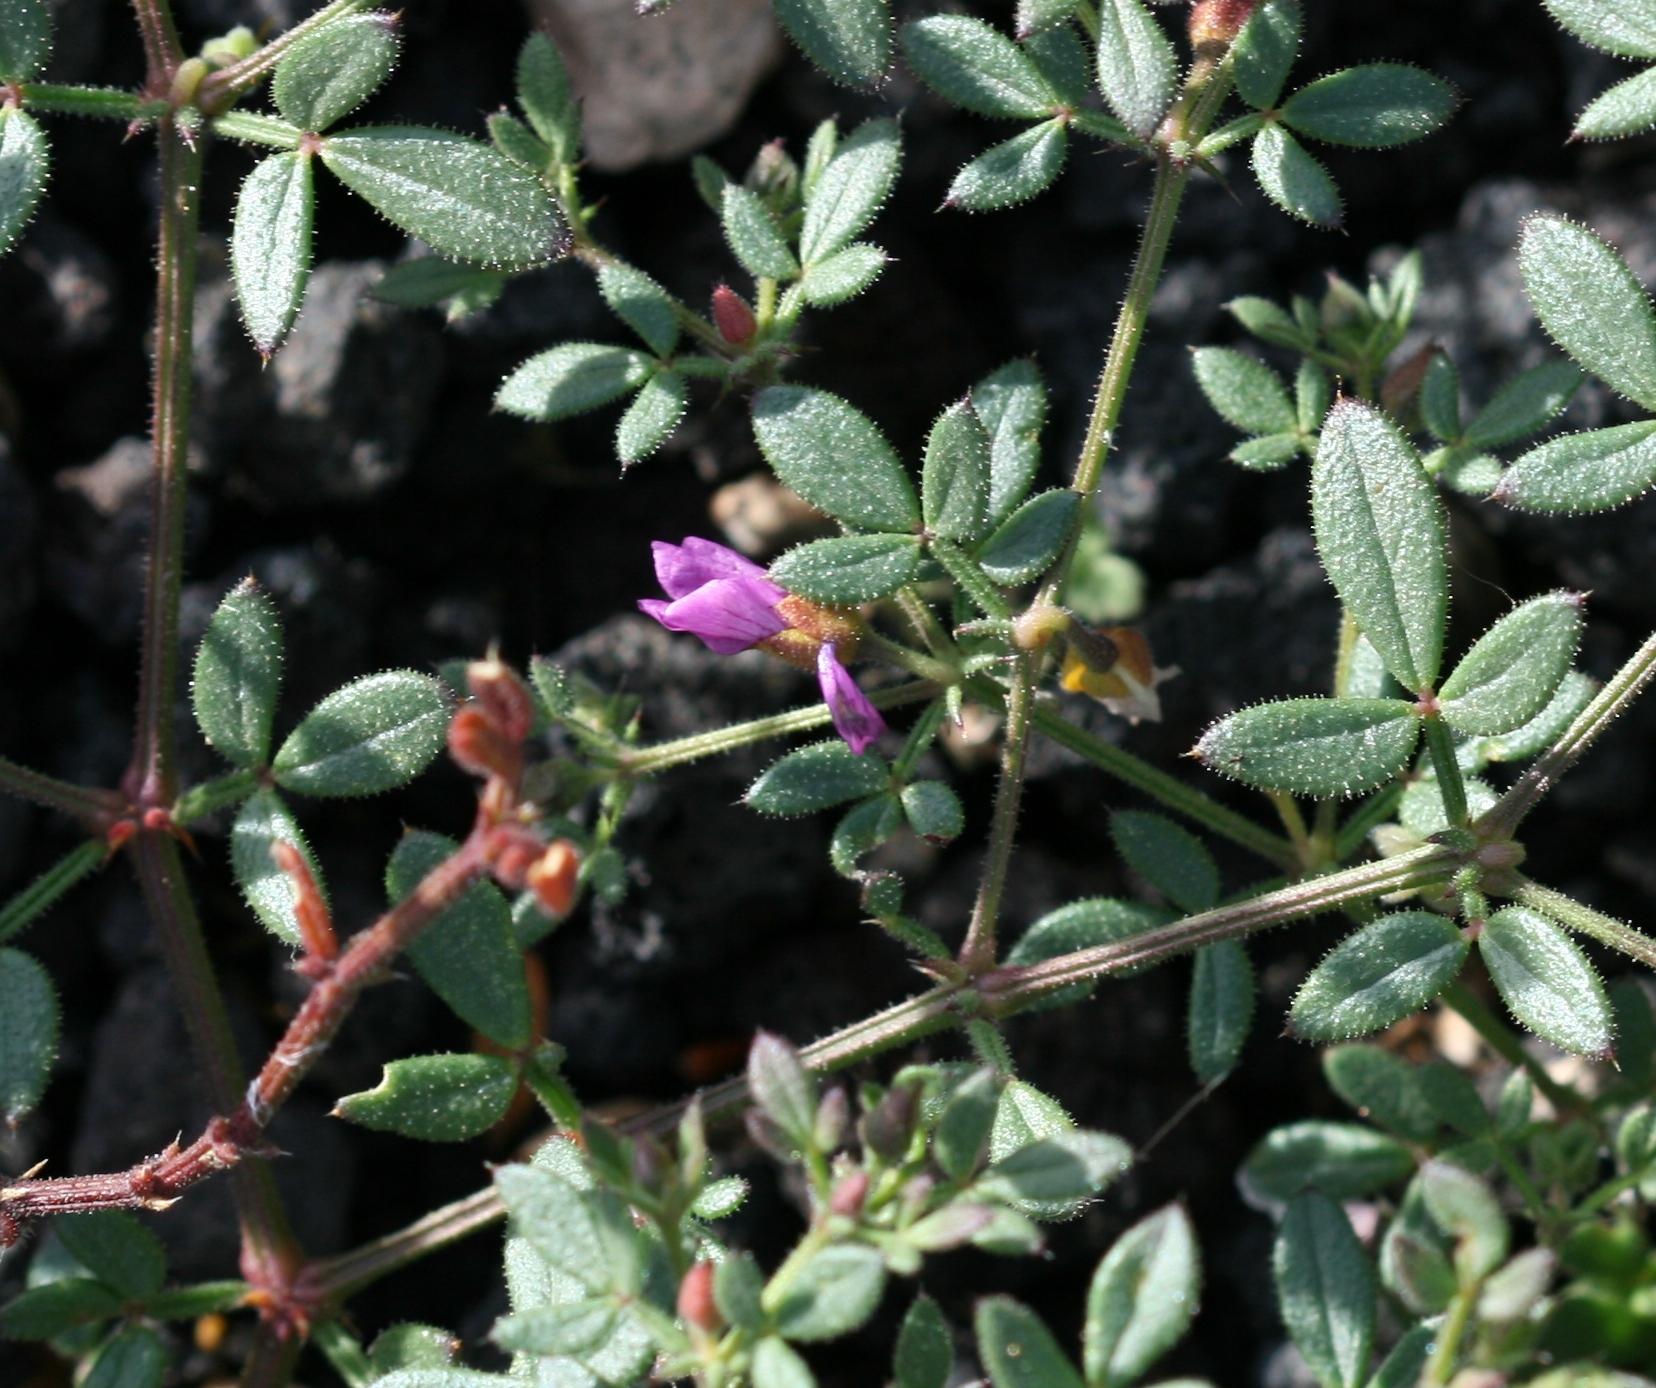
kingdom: Plantae
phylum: Tracheophyta
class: Magnoliopsida
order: Zygophyllales
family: Zygophyllaceae
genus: Fagonia
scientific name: Fagonia cretica
